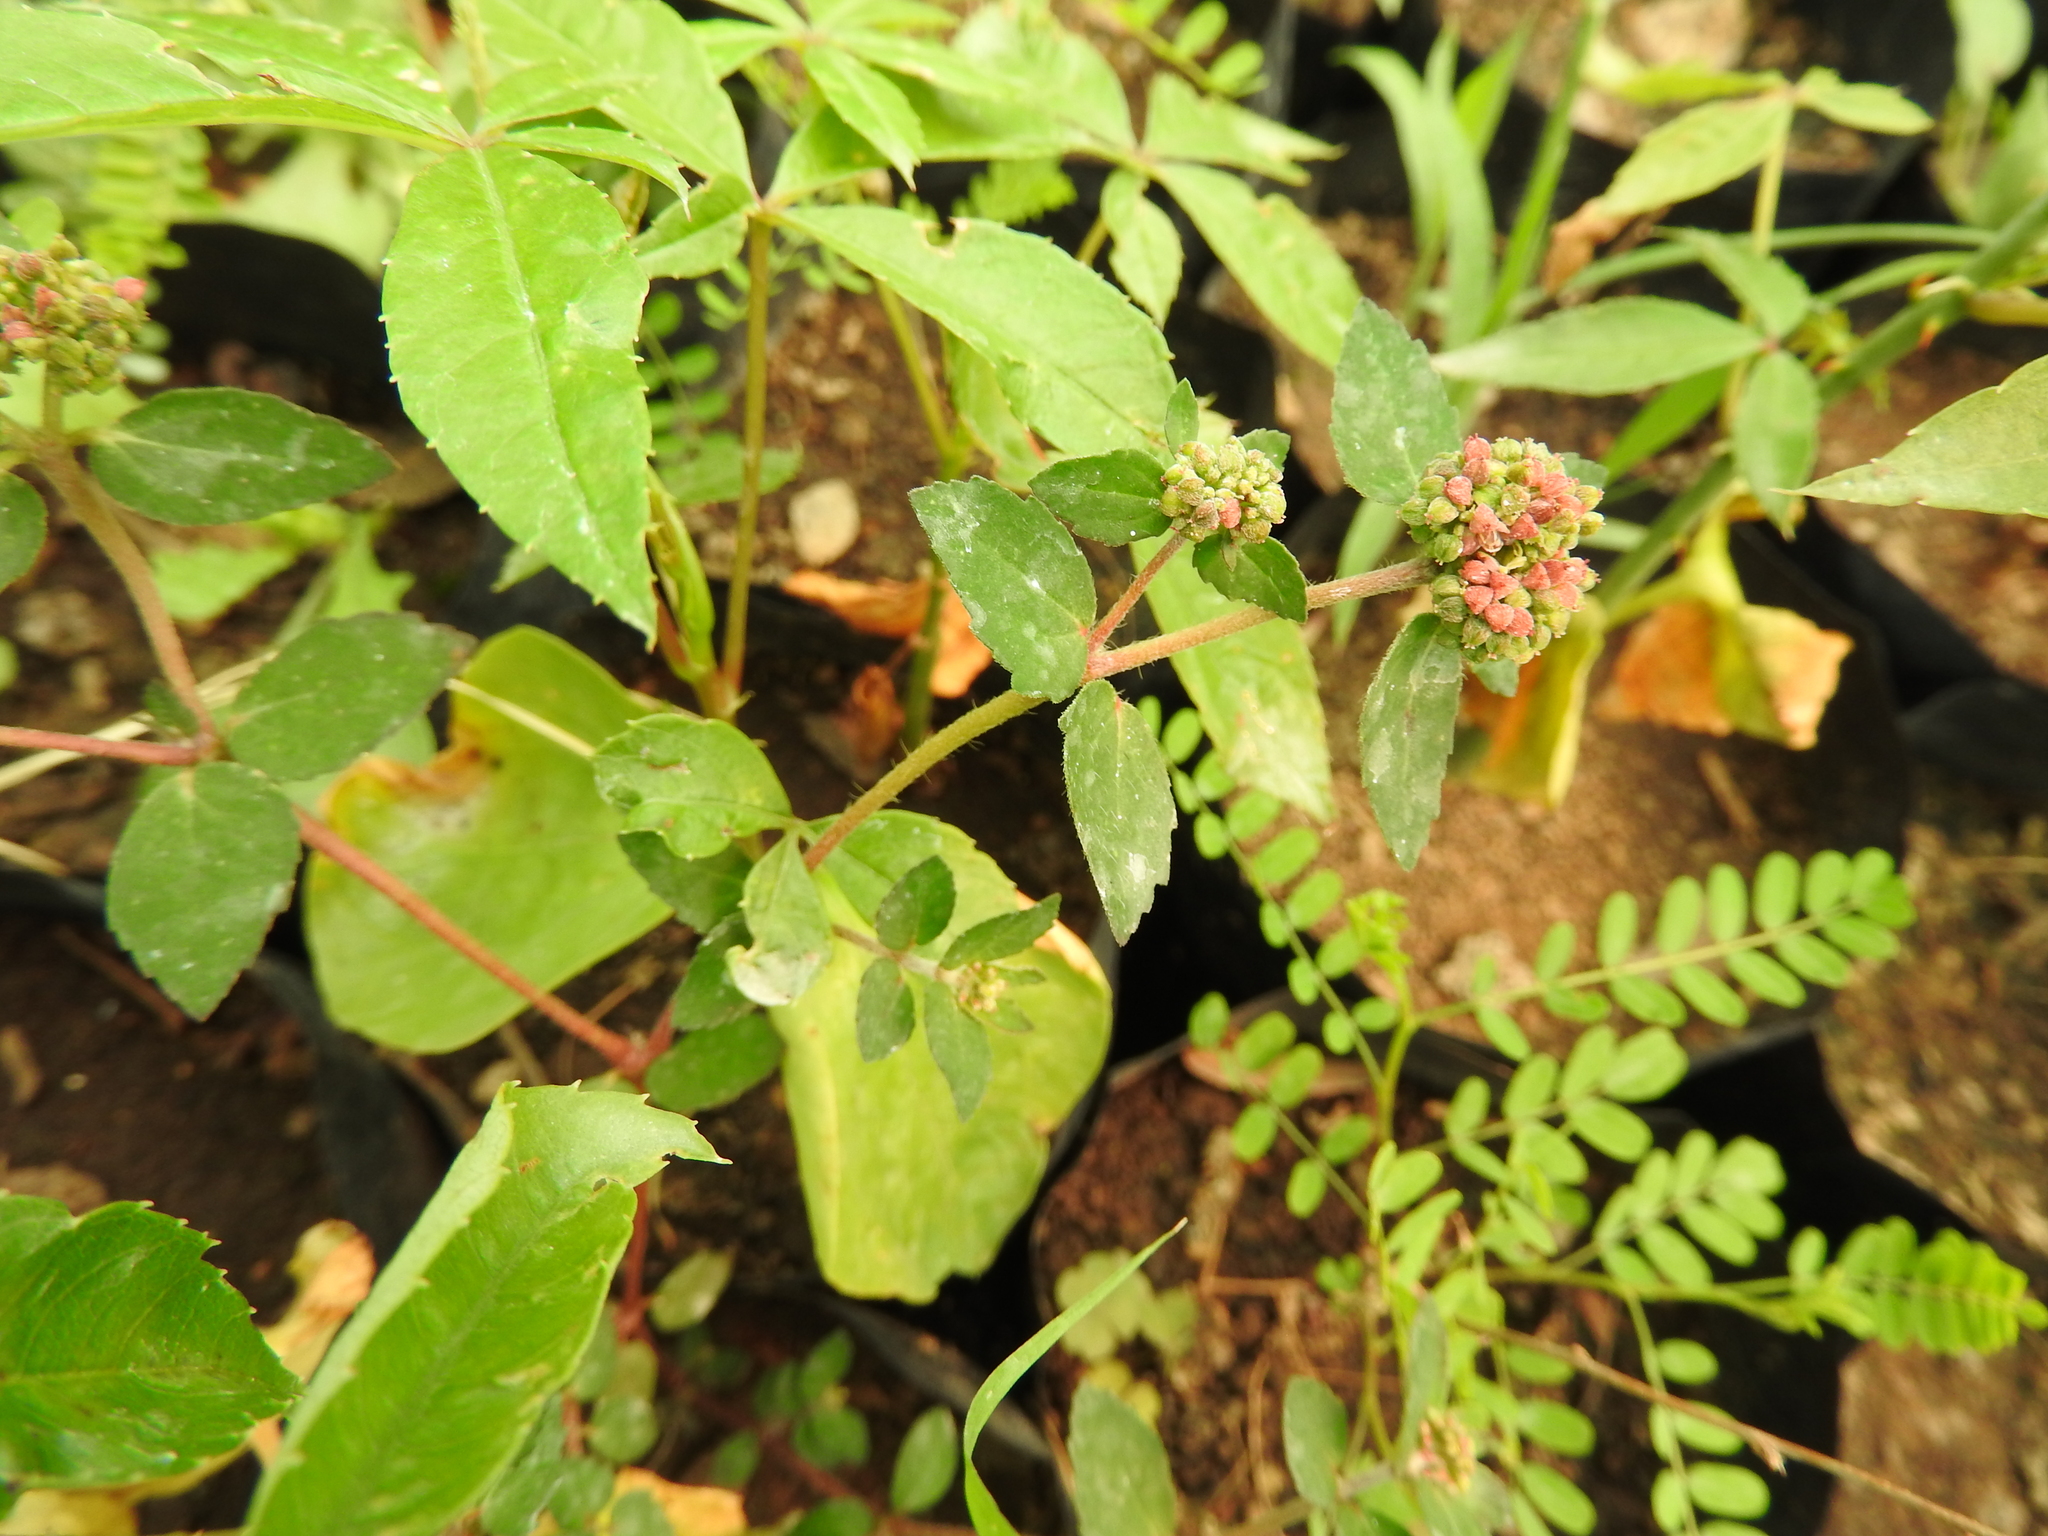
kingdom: Plantae
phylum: Tracheophyta
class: Magnoliopsida
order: Malpighiales
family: Euphorbiaceae
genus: Euphorbia
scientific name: Euphorbia ophthalmica
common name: Florida hammock sandmat
